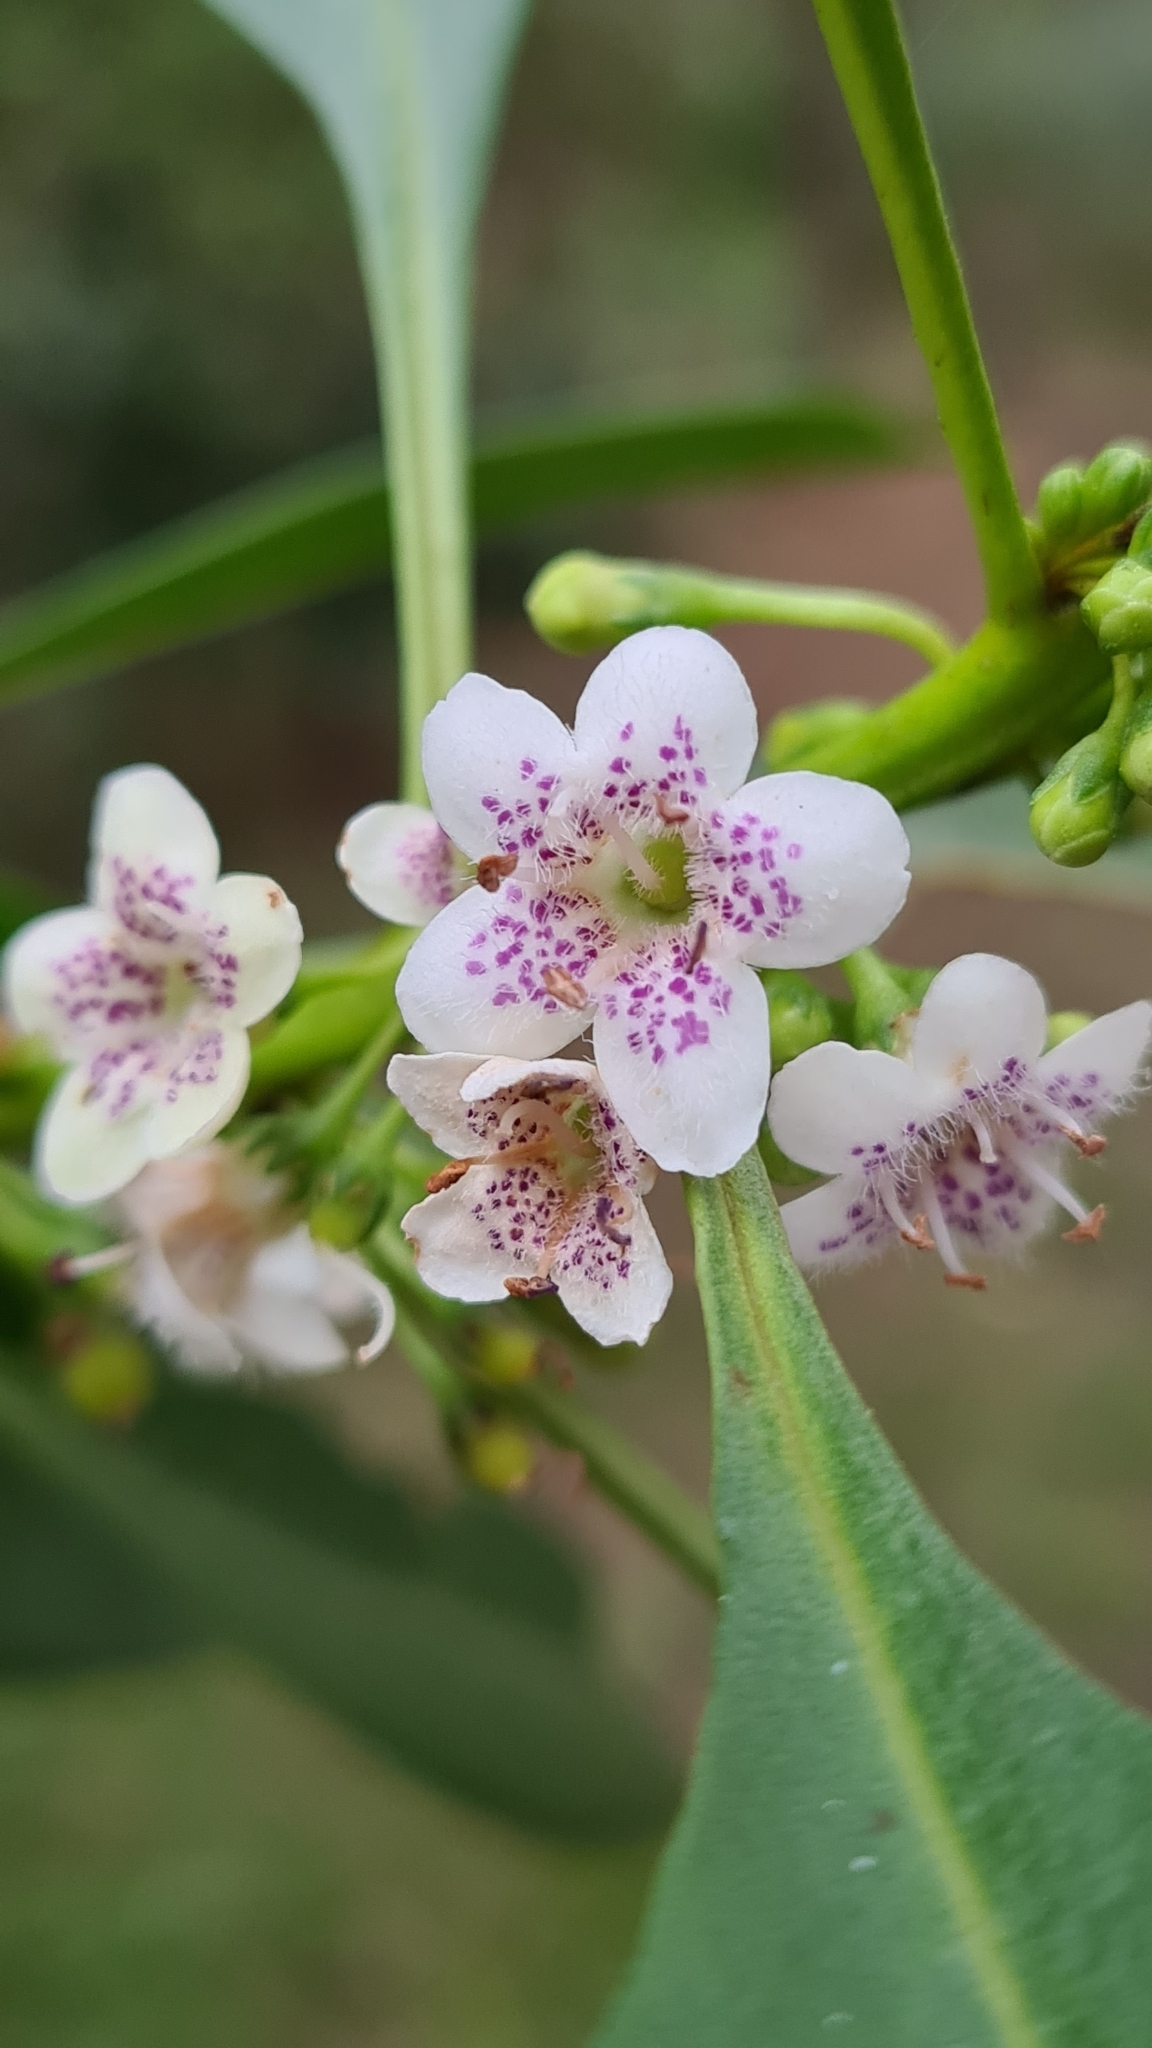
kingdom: Plantae
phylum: Tracheophyta
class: Magnoliopsida
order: Lamiales
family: Scrophulariaceae
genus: Myoporum
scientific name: Myoporum acuminatum
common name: Pointed boobialla
